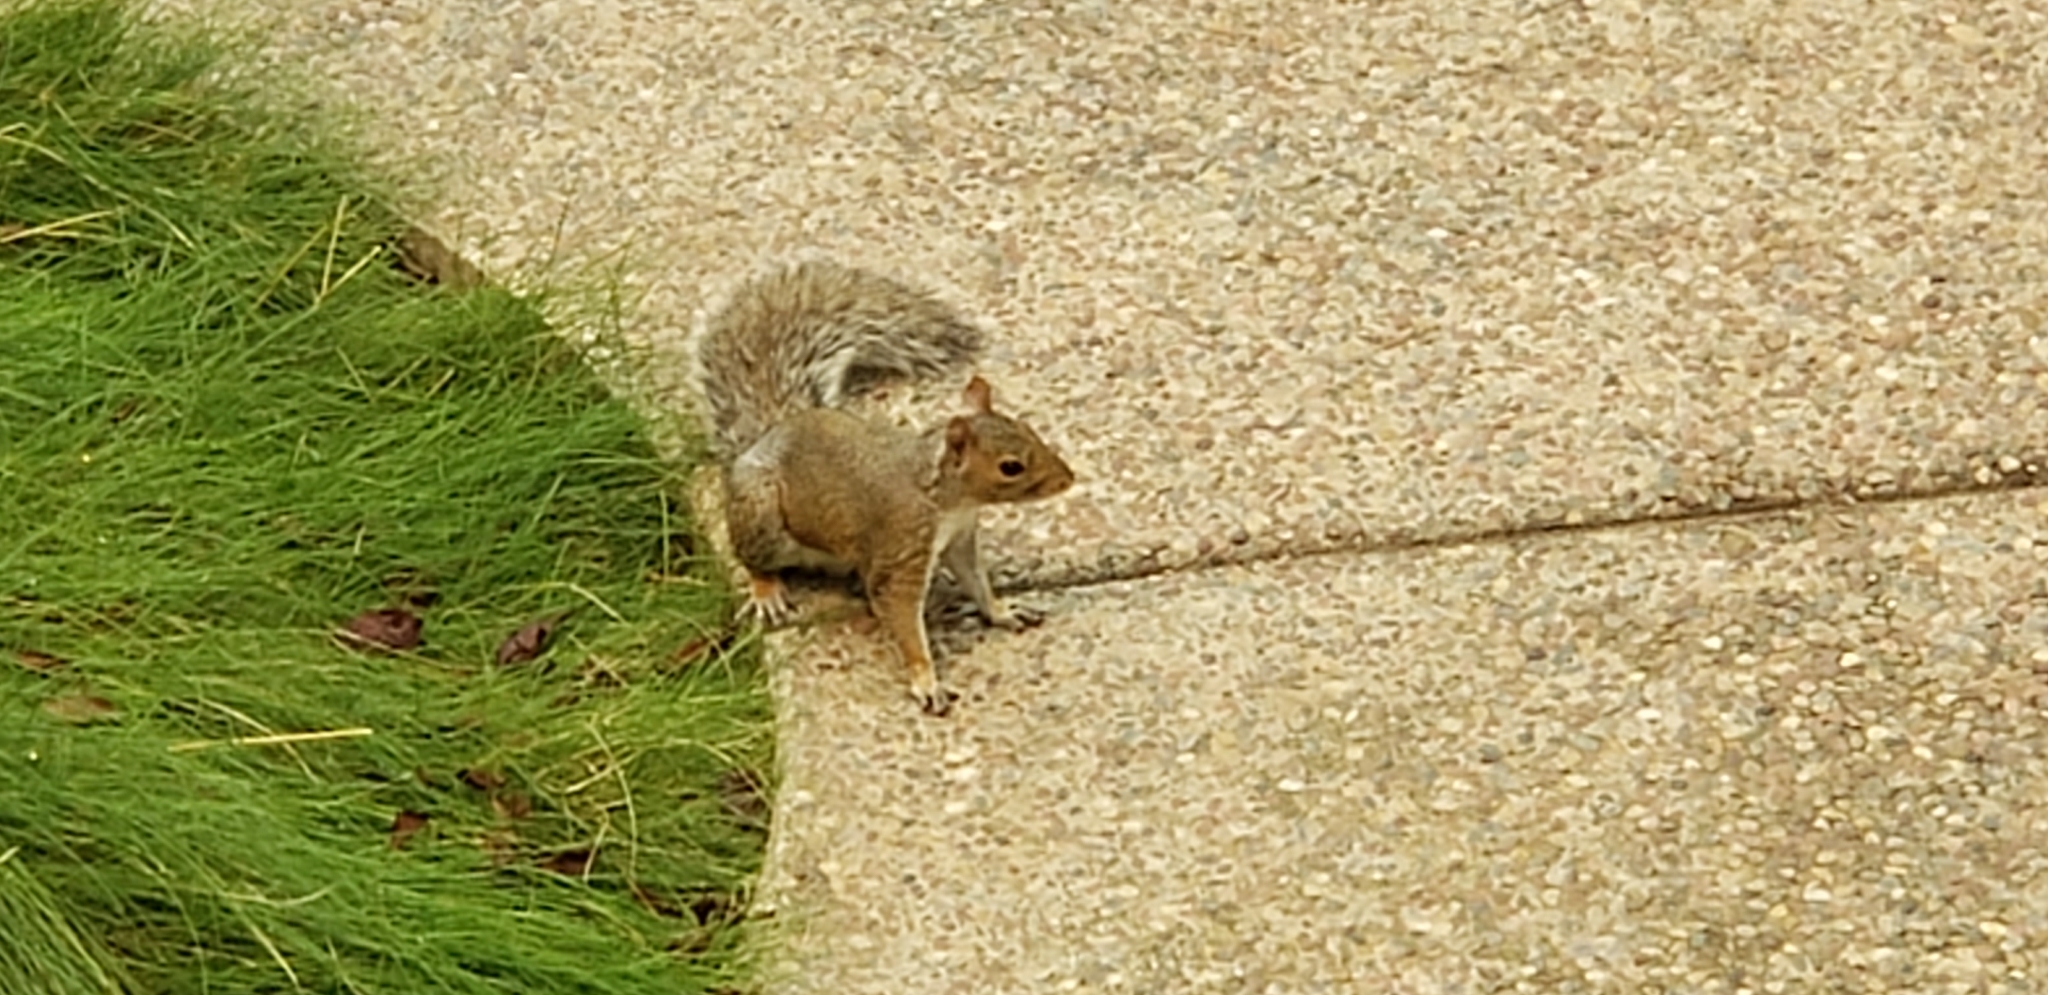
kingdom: Animalia
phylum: Chordata
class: Mammalia
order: Rodentia
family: Sciuridae
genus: Sciurus
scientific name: Sciurus carolinensis
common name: Eastern gray squirrel
